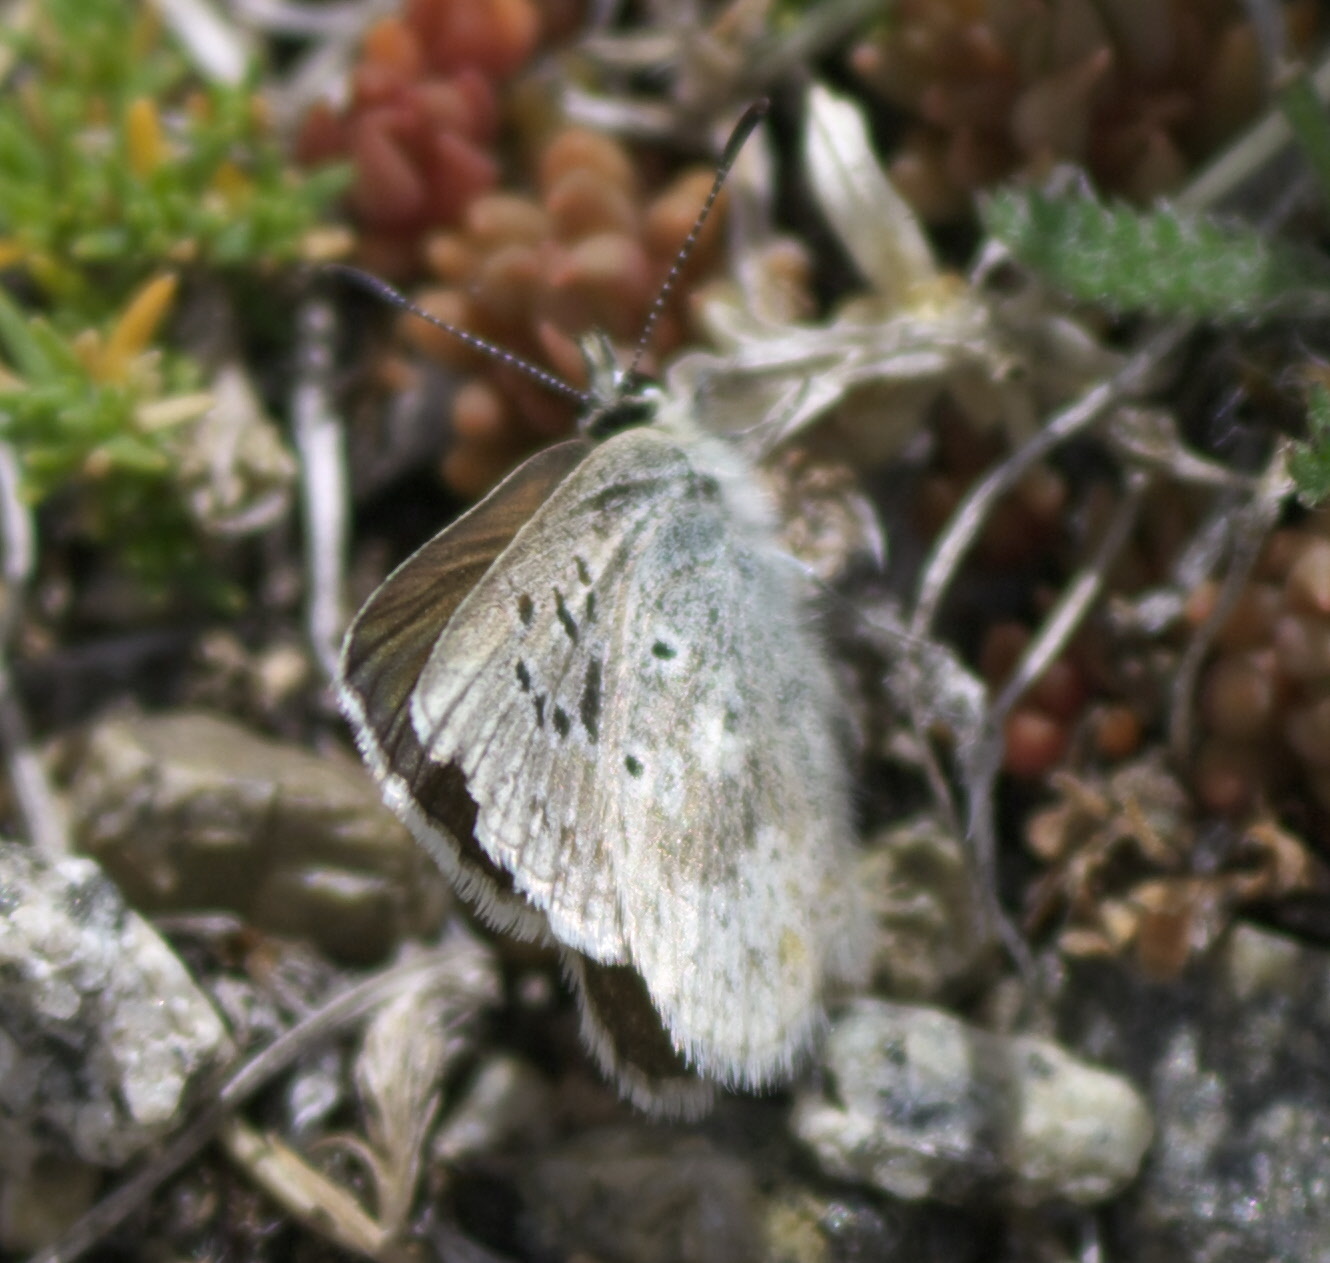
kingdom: Animalia
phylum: Arthropoda
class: Insecta
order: Lepidoptera
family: Lycaenidae
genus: Agriades
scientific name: Agriades glandon
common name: Glandon blue
